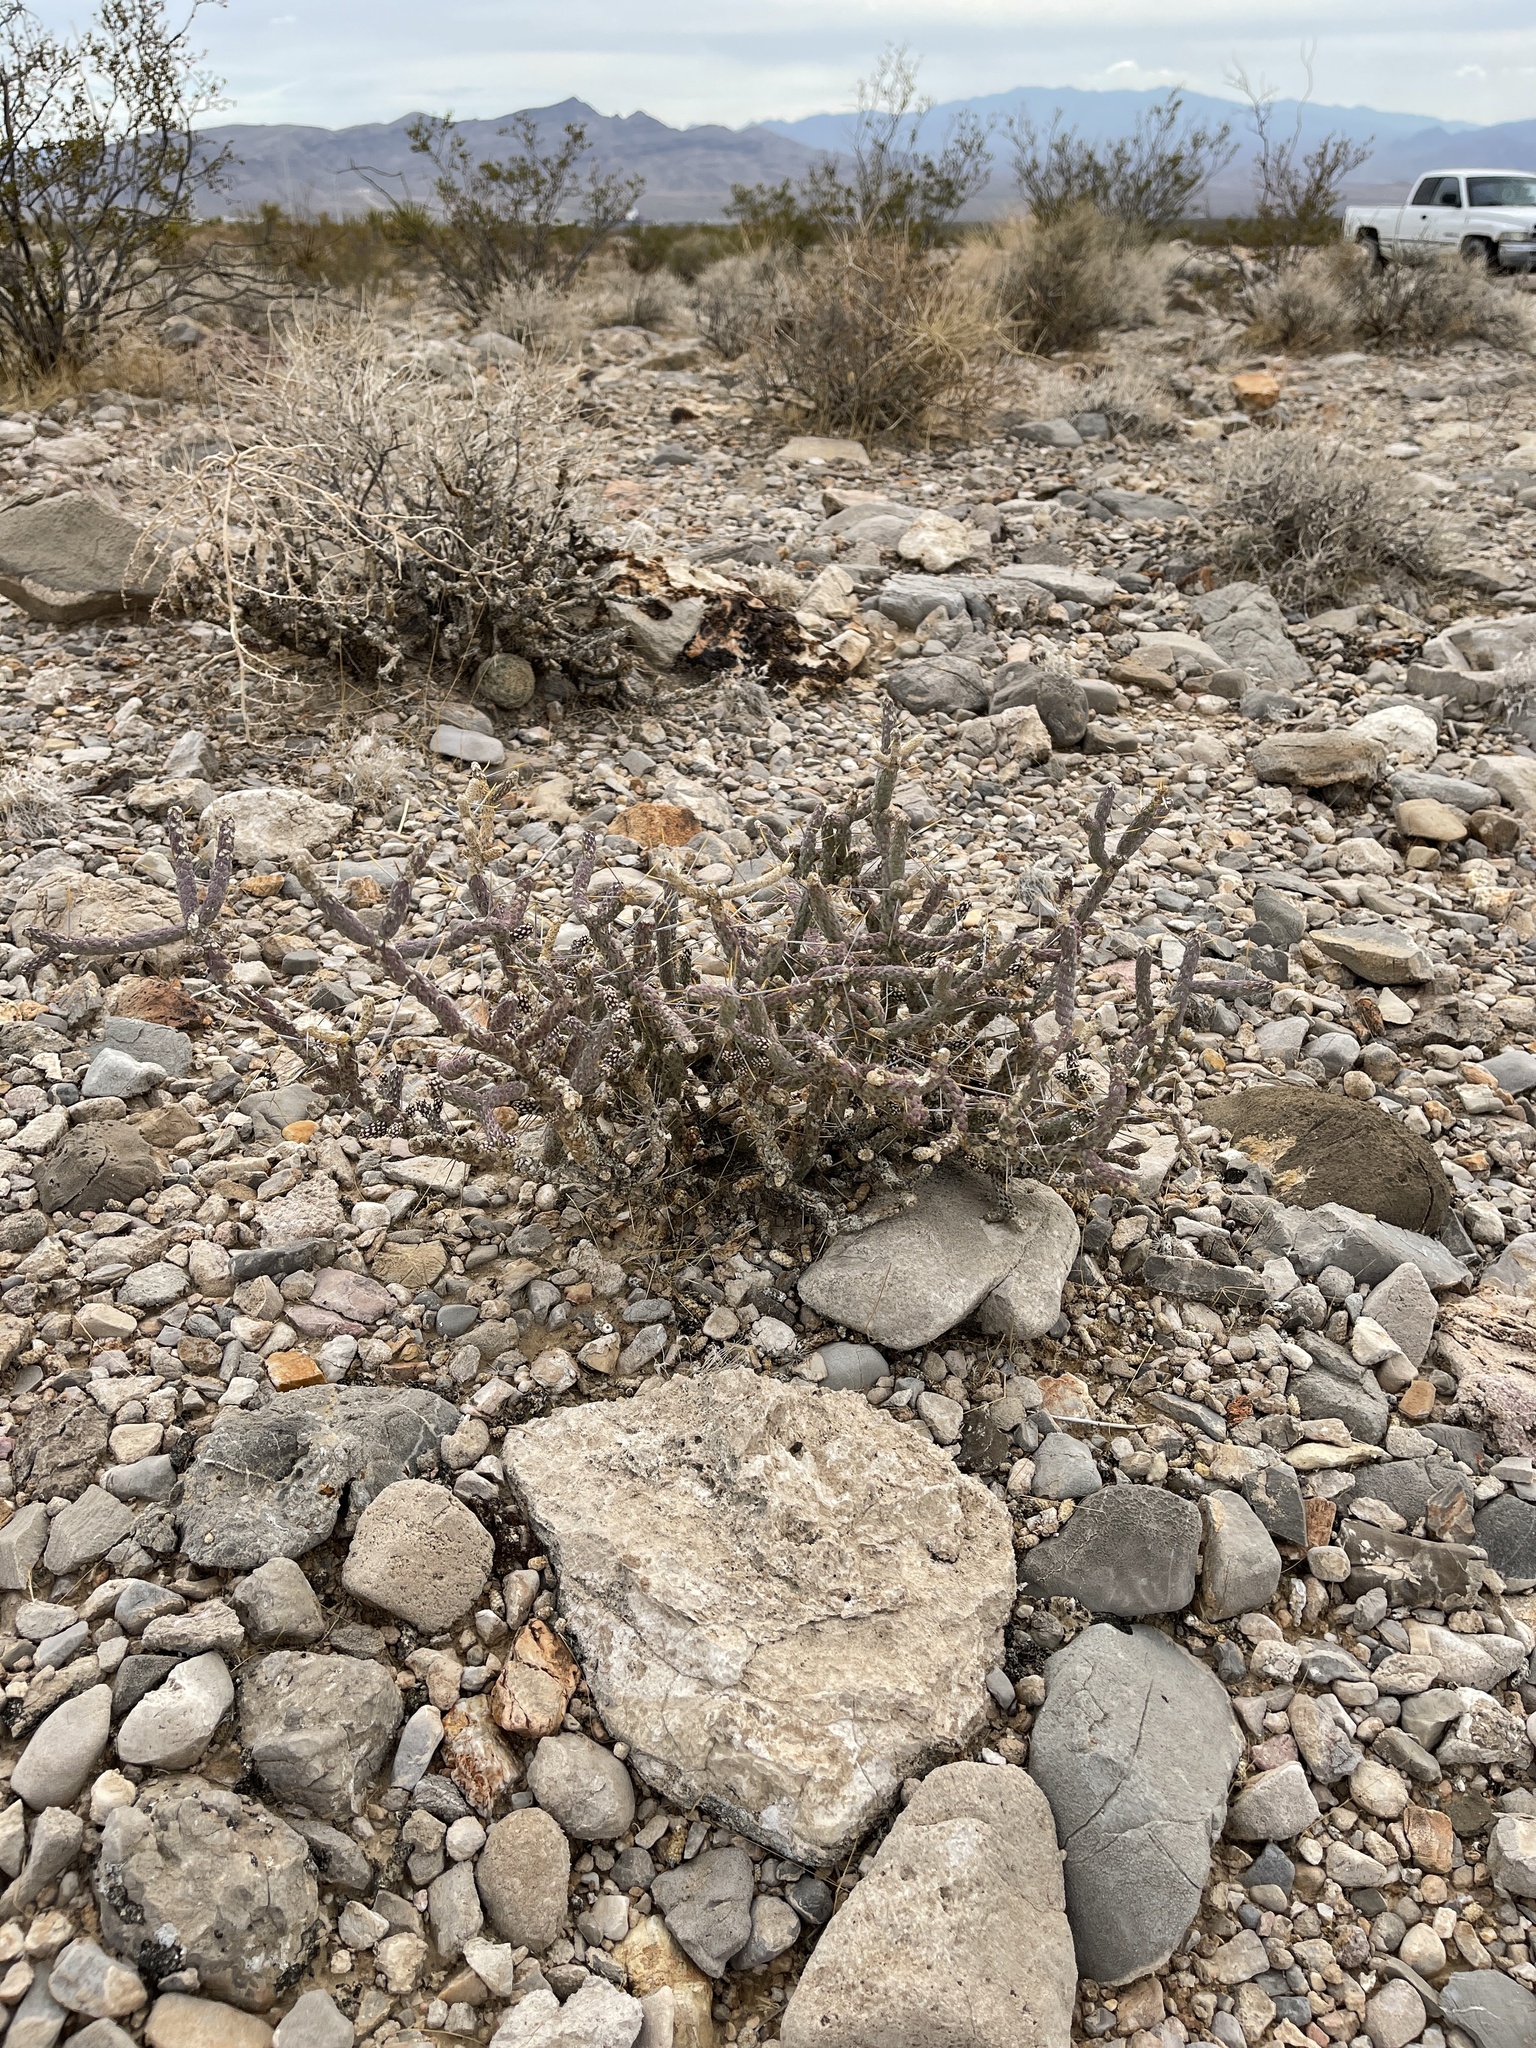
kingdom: Plantae
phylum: Tracheophyta
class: Magnoliopsida
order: Caryophyllales
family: Cactaceae
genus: Cylindropuntia
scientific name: Cylindropuntia ramosissima
